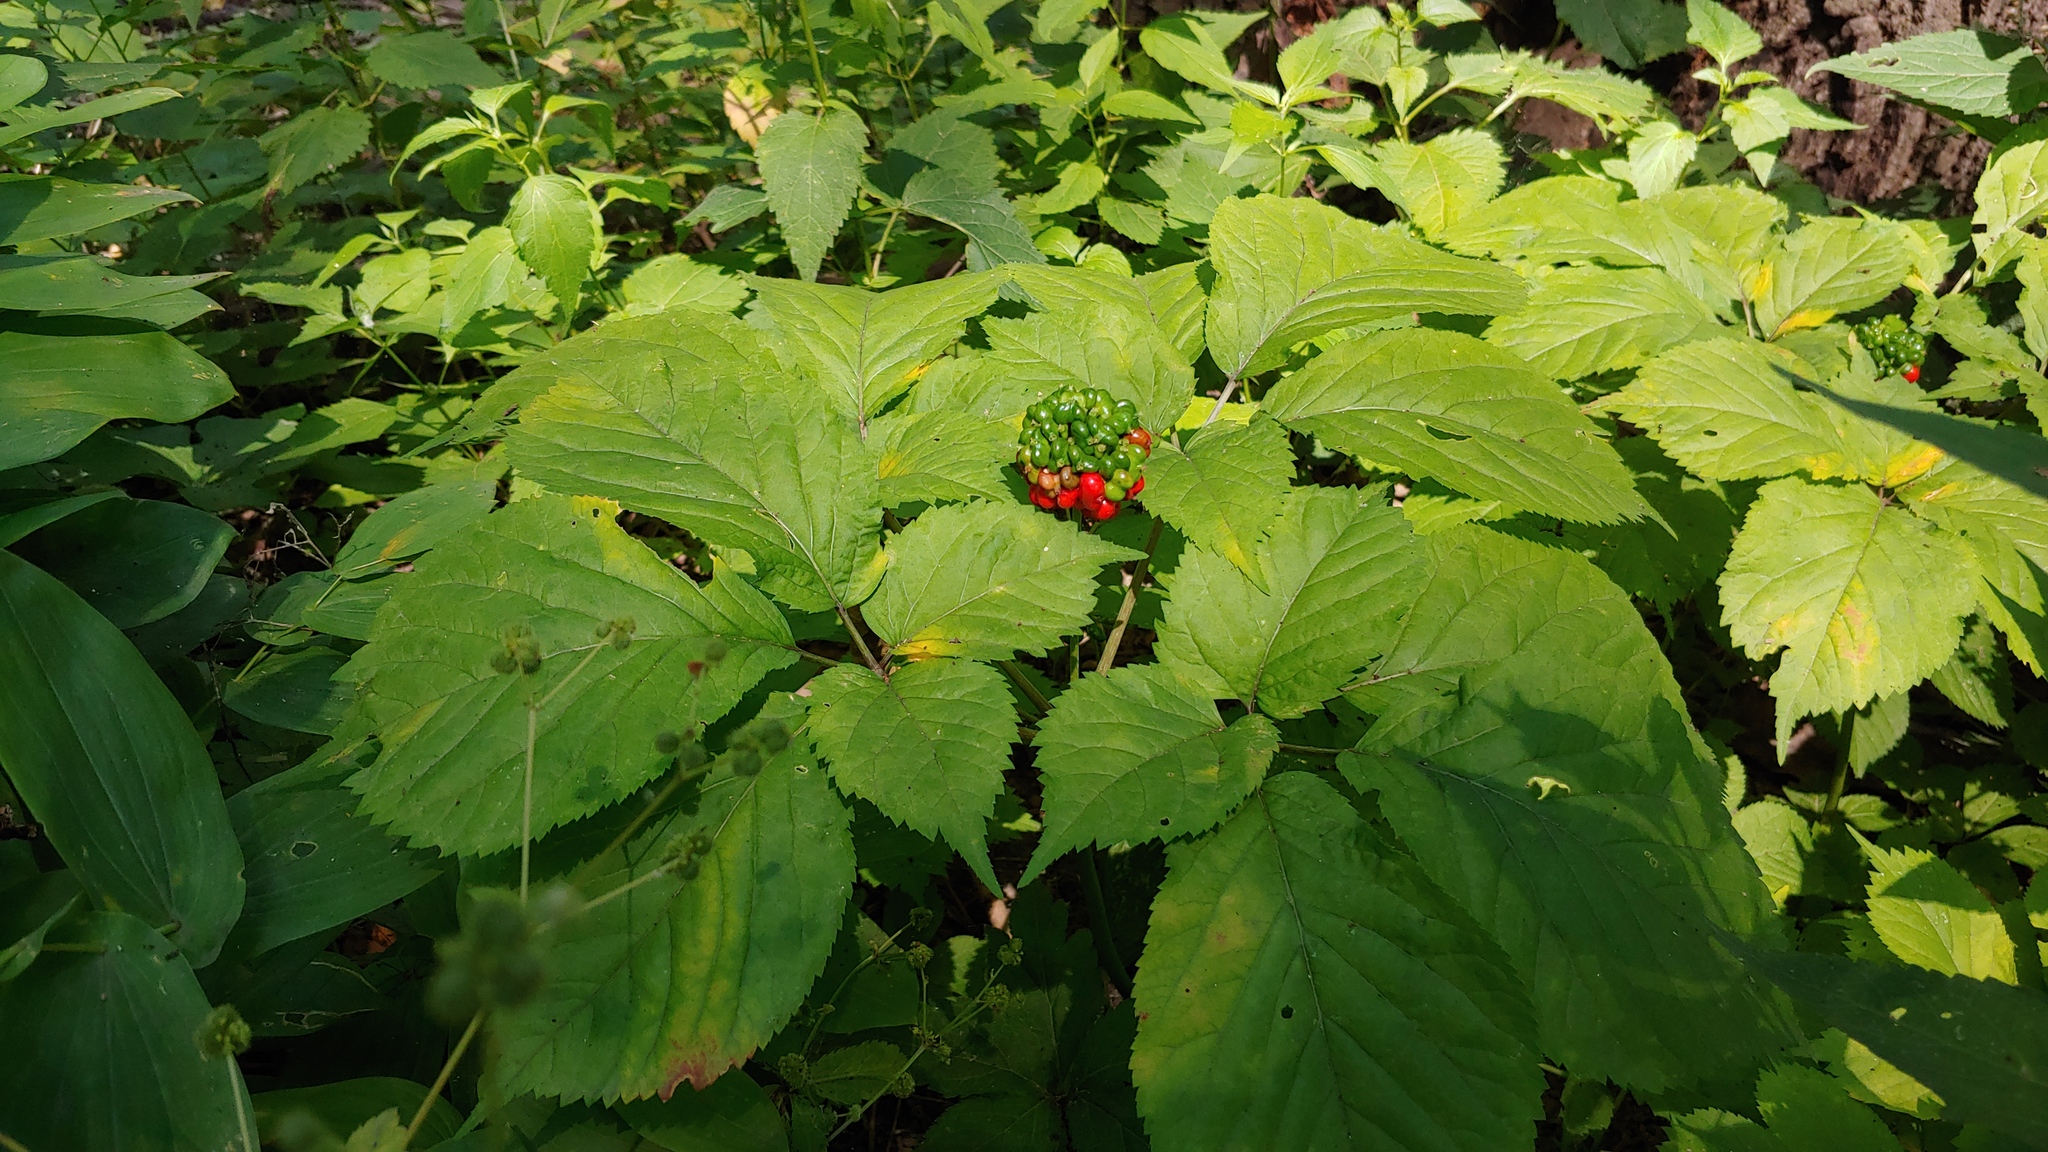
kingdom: Plantae
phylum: Tracheophyta
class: Magnoliopsida
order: Apiales
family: Araliaceae
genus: Panax
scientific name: Panax quinquefolius
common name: American ginseng
